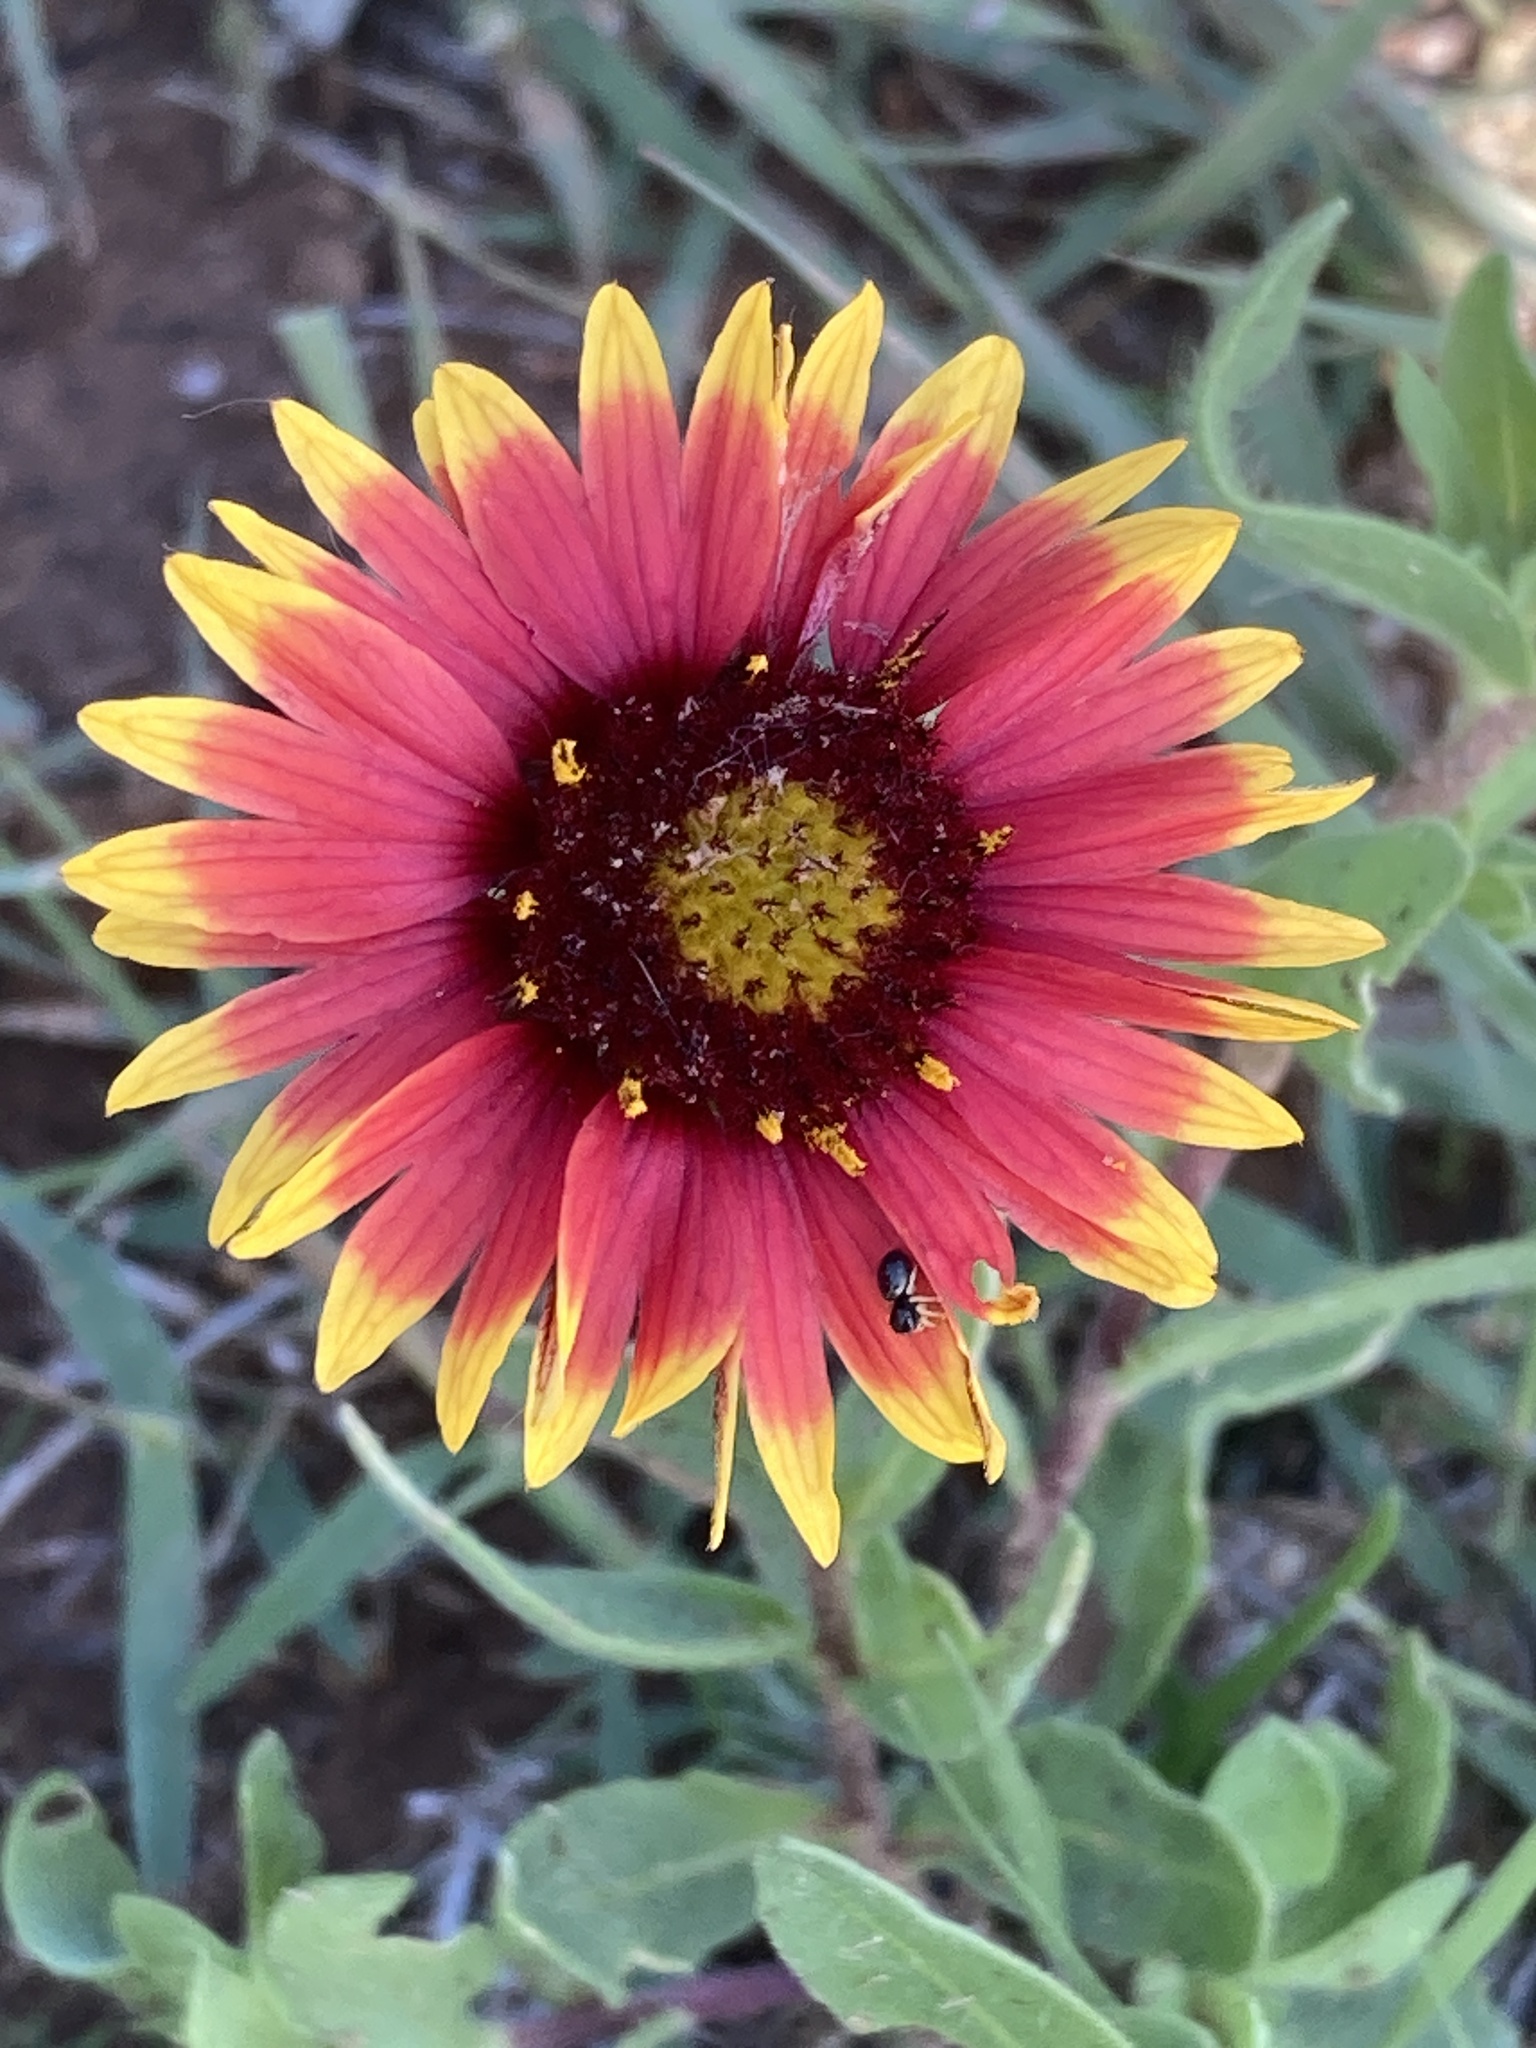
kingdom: Plantae
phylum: Tracheophyta
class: Magnoliopsida
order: Asterales
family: Asteraceae
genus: Gaillardia
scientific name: Gaillardia pulchella
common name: Firewheel
